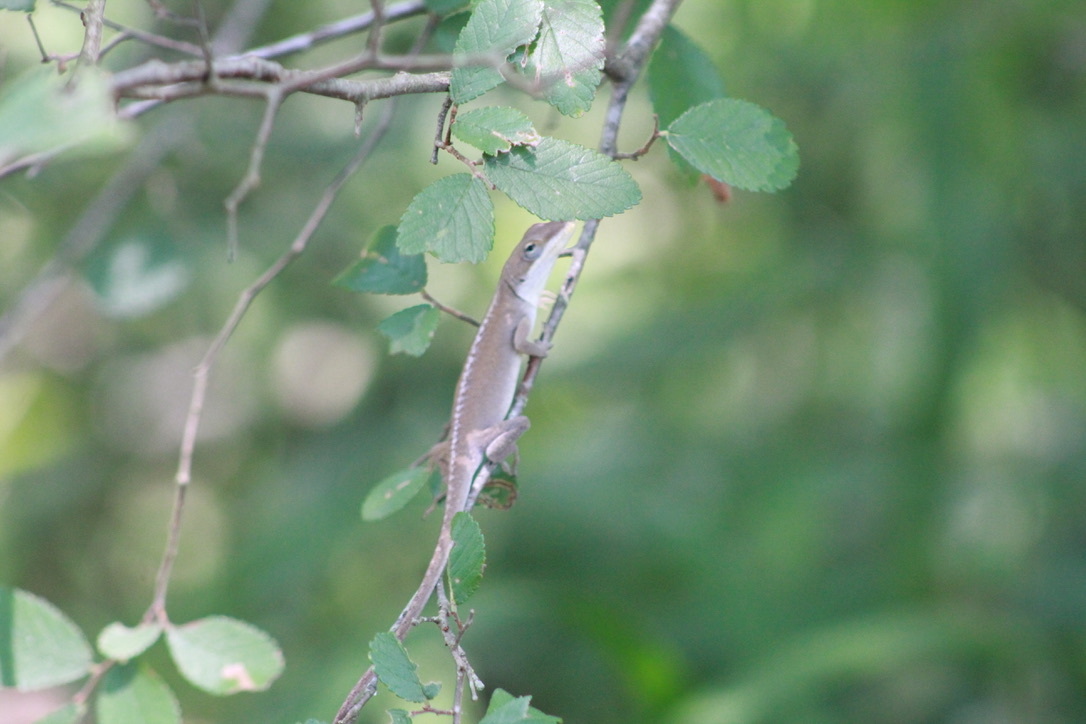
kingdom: Animalia
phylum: Chordata
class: Squamata
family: Dactyloidae
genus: Anolis
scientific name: Anolis carolinensis
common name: Green anole
